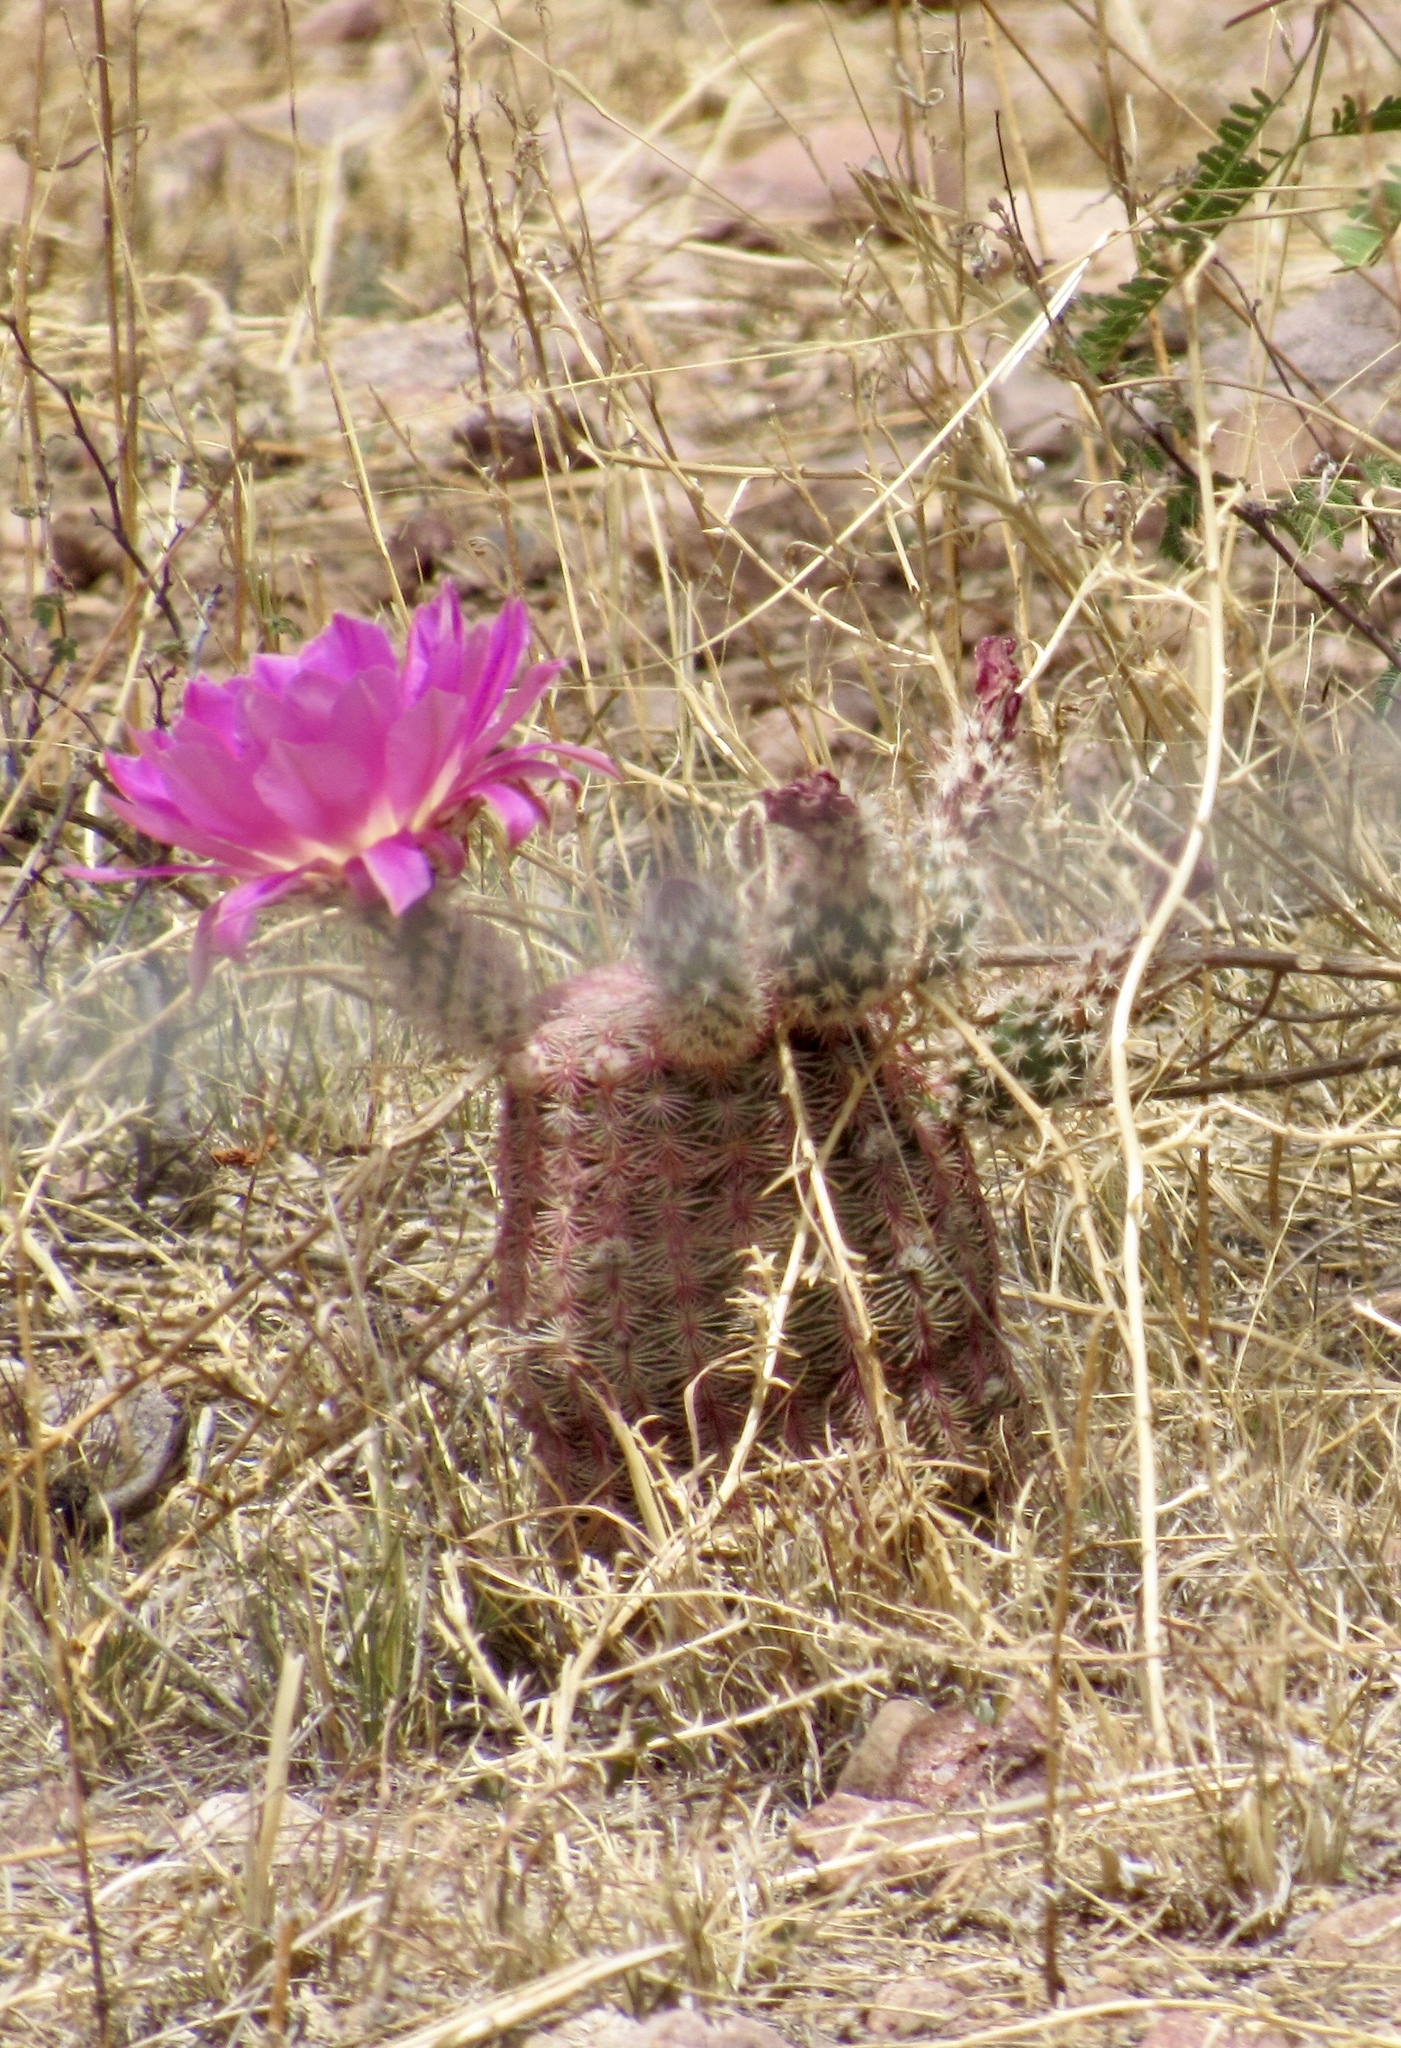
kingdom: Plantae
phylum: Tracheophyta
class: Magnoliopsida
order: Caryophyllales
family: Cactaceae
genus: Echinocereus
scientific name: Echinocereus rigidissimus
